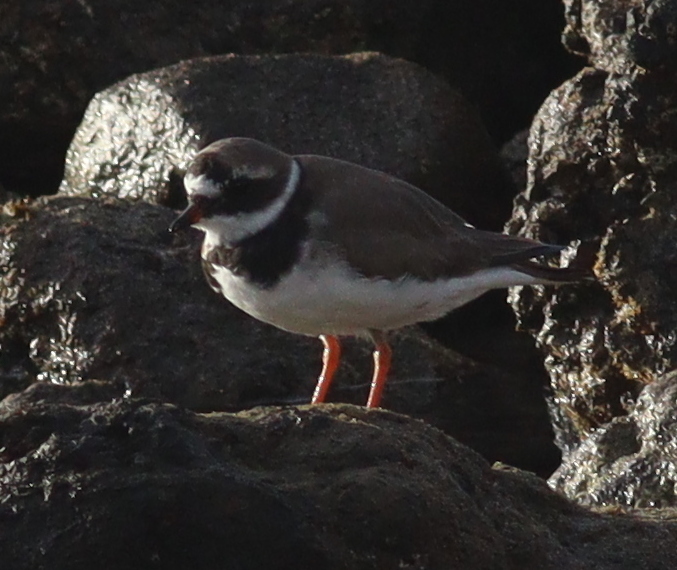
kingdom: Animalia
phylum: Chordata
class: Aves
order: Charadriiformes
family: Charadriidae
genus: Charadrius
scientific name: Charadrius hiaticula
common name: Common ringed plover
